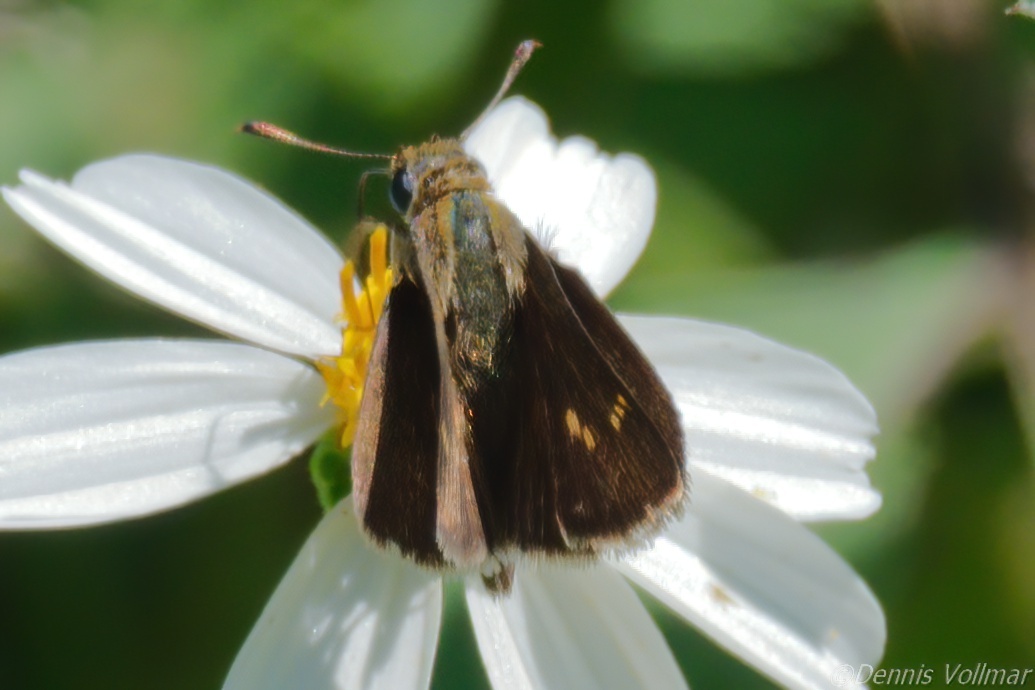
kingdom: Animalia
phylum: Arthropoda
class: Insecta
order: Lepidoptera
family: Hesperiidae
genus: Polites
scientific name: Polites themistocles
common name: Tawny-edged skipper
